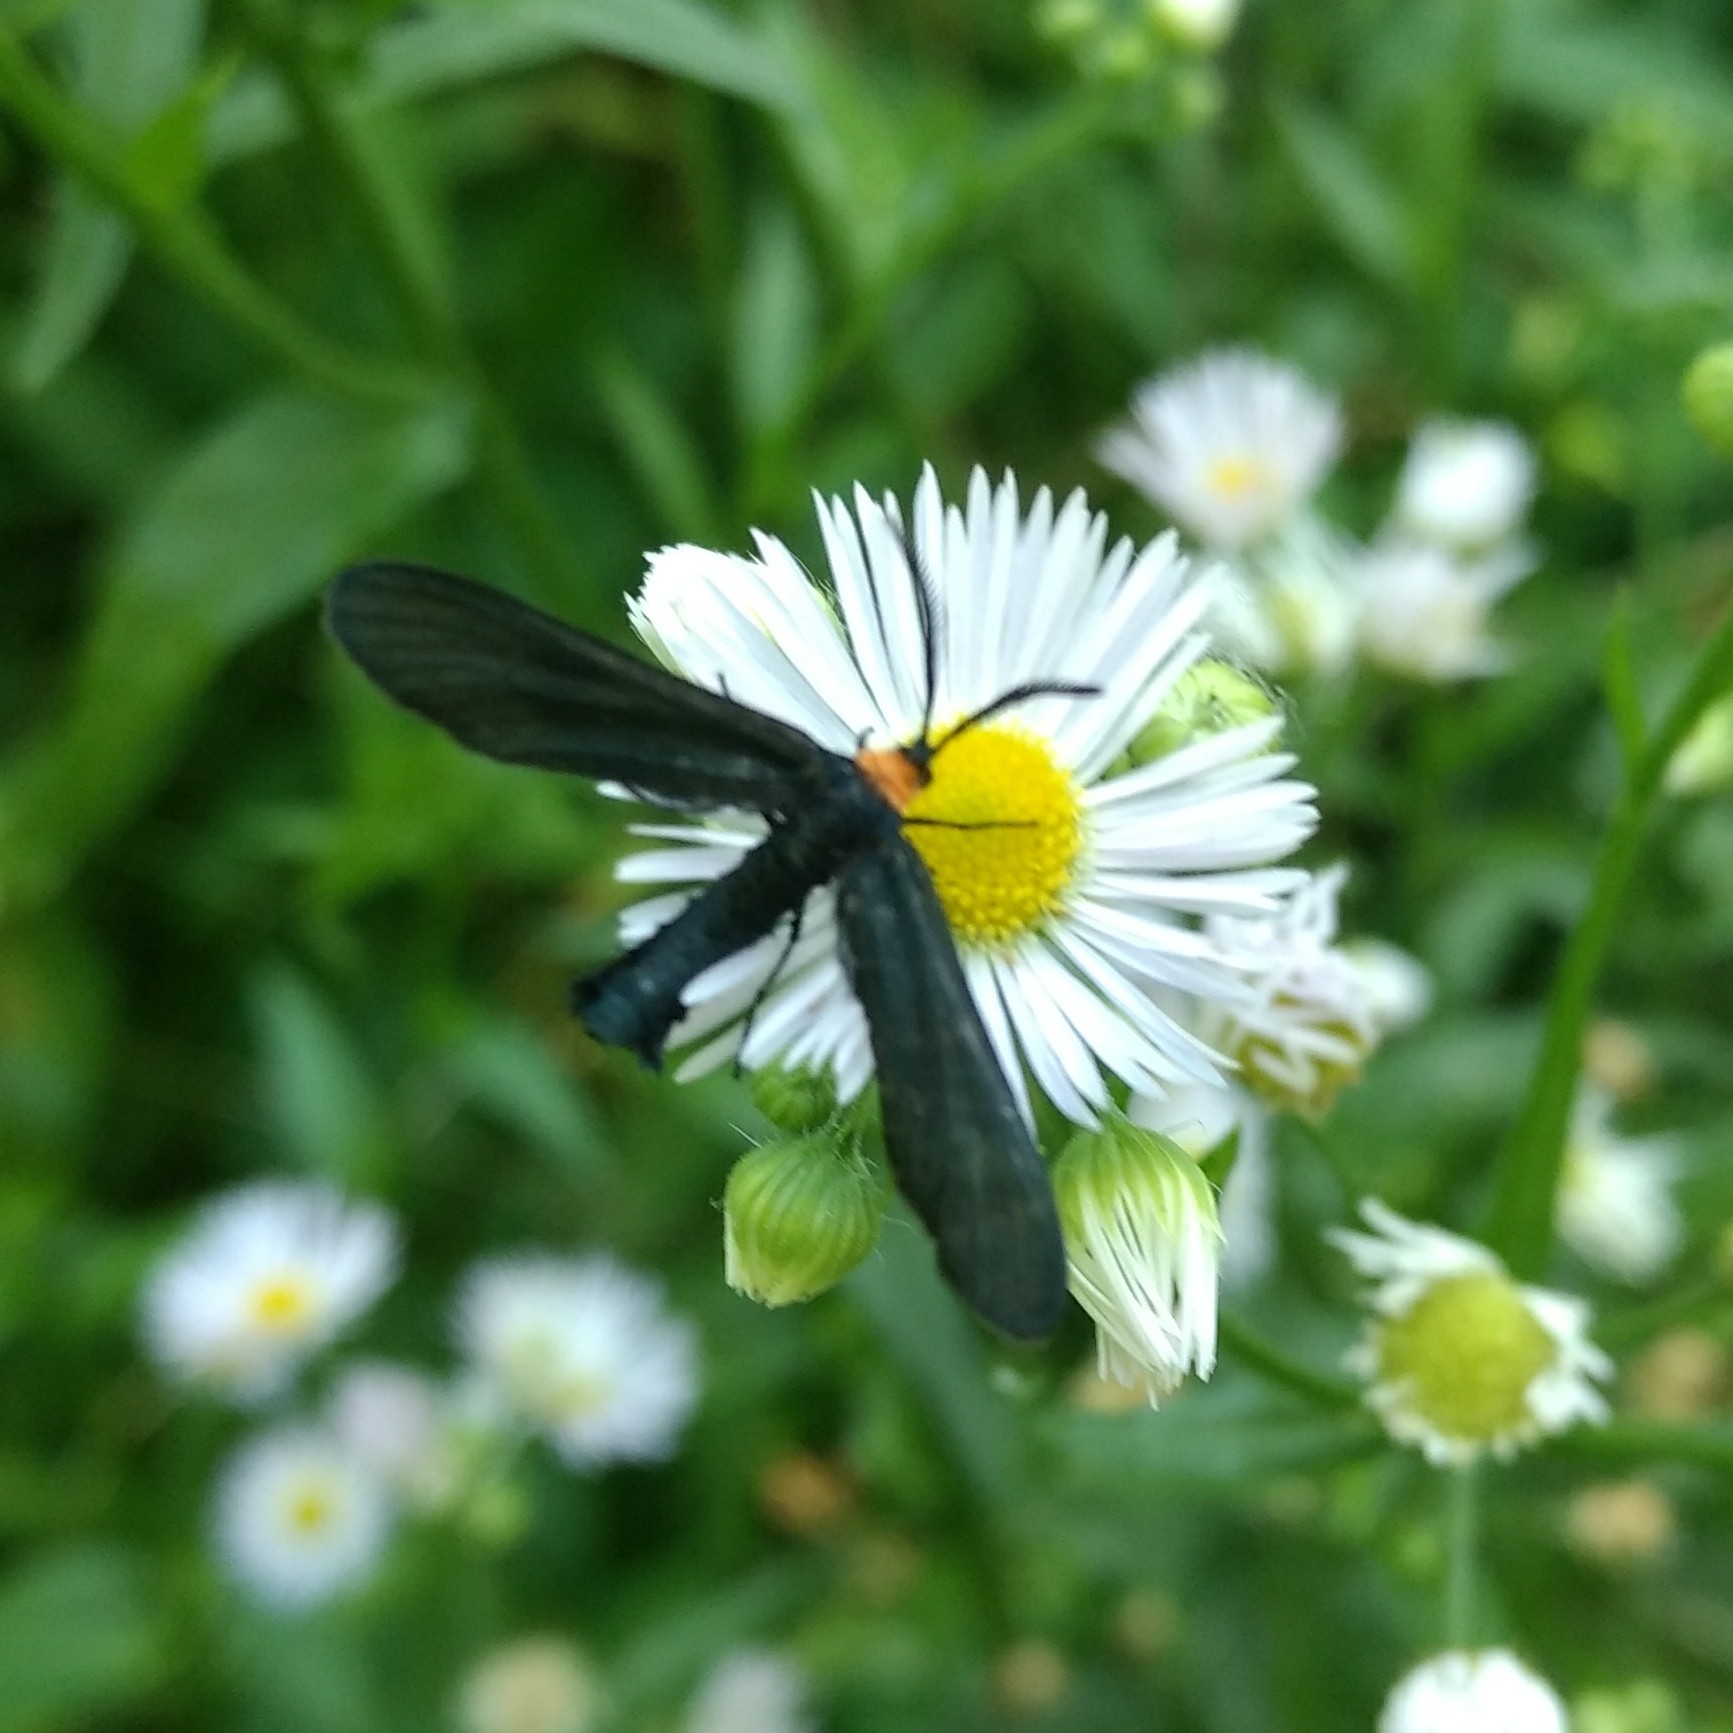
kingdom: Animalia
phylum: Arthropoda
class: Insecta
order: Lepidoptera
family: Zygaenidae
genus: Harrisina
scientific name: Harrisina americana
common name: Grapeleaf skeletonizer moth
